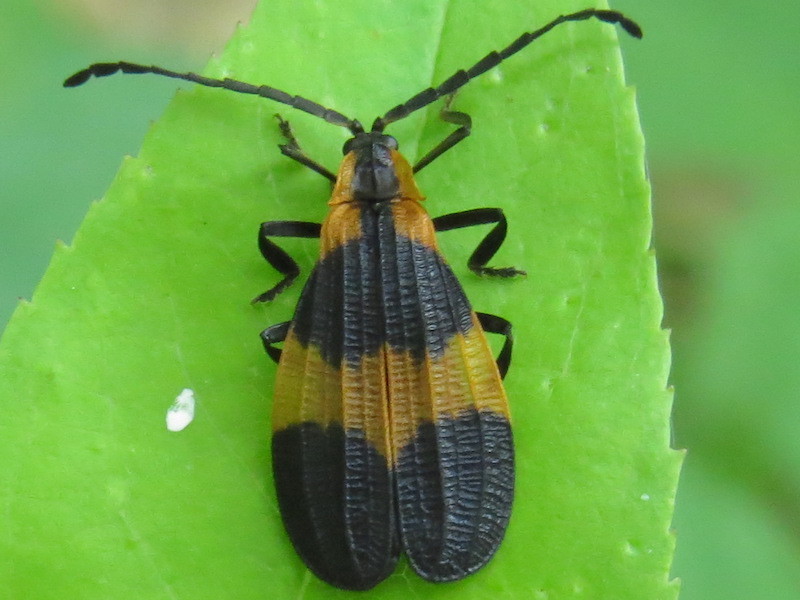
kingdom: Animalia
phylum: Arthropoda
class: Insecta
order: Coleoptera
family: Lycidae
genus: Calopteron
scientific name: Calopteron reticulatum
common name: Banded net-winged beetle
